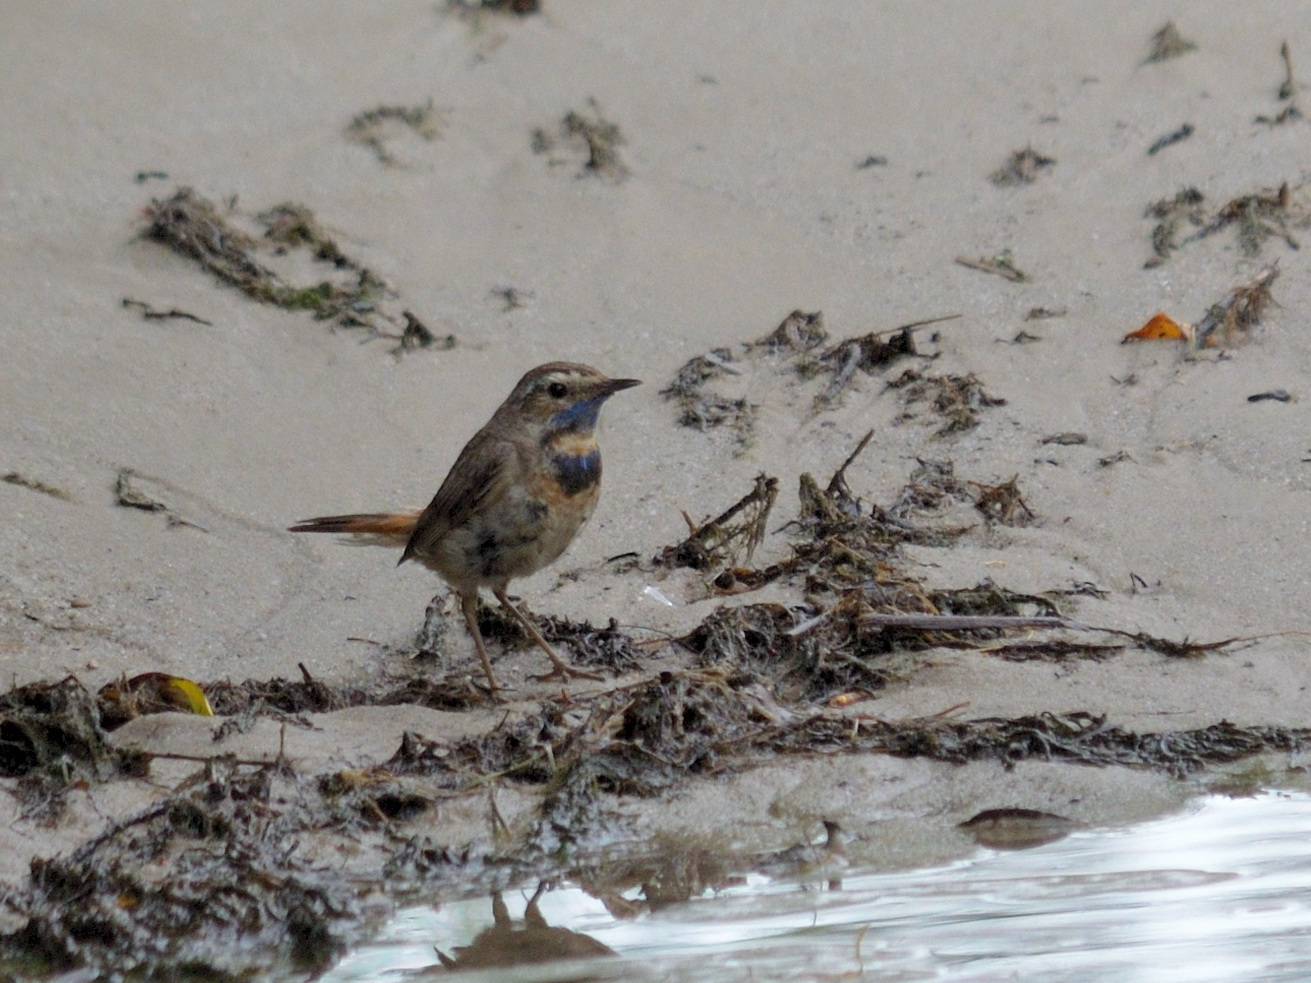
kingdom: Animalia
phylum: Chordata
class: Aves
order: Passeriformes
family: Muscicapidae
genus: Luscinia
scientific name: Luscinia svecica
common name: Bluethroat
